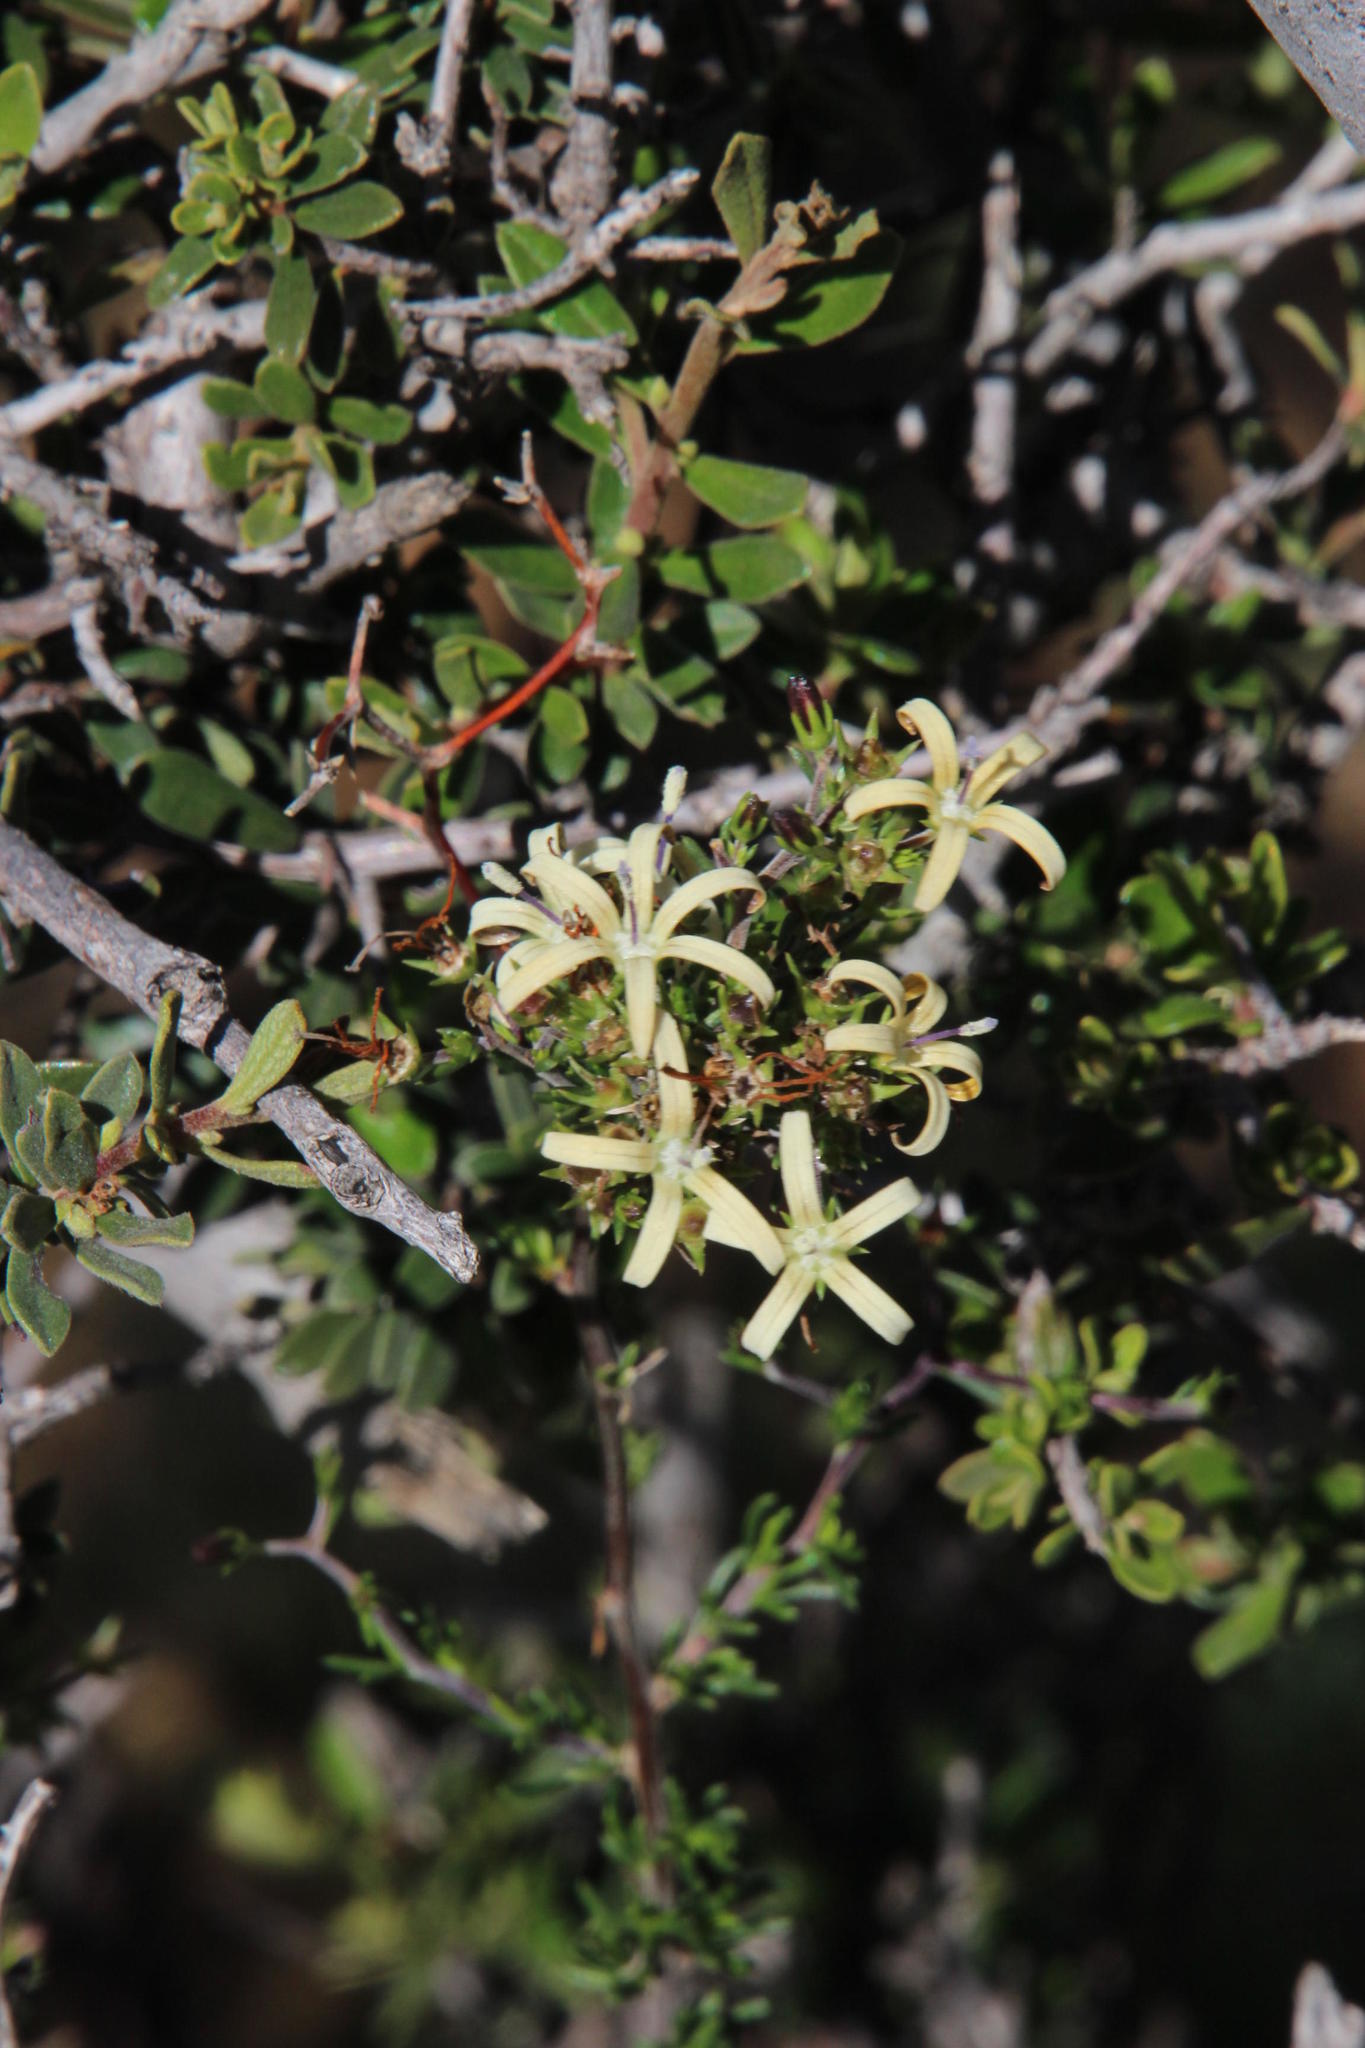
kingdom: Plantae
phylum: Tracheophyta
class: Magnoliopsida
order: Asterales
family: Campanulaceae
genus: Wahlenbergia
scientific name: Wahlenbergia nodosa
